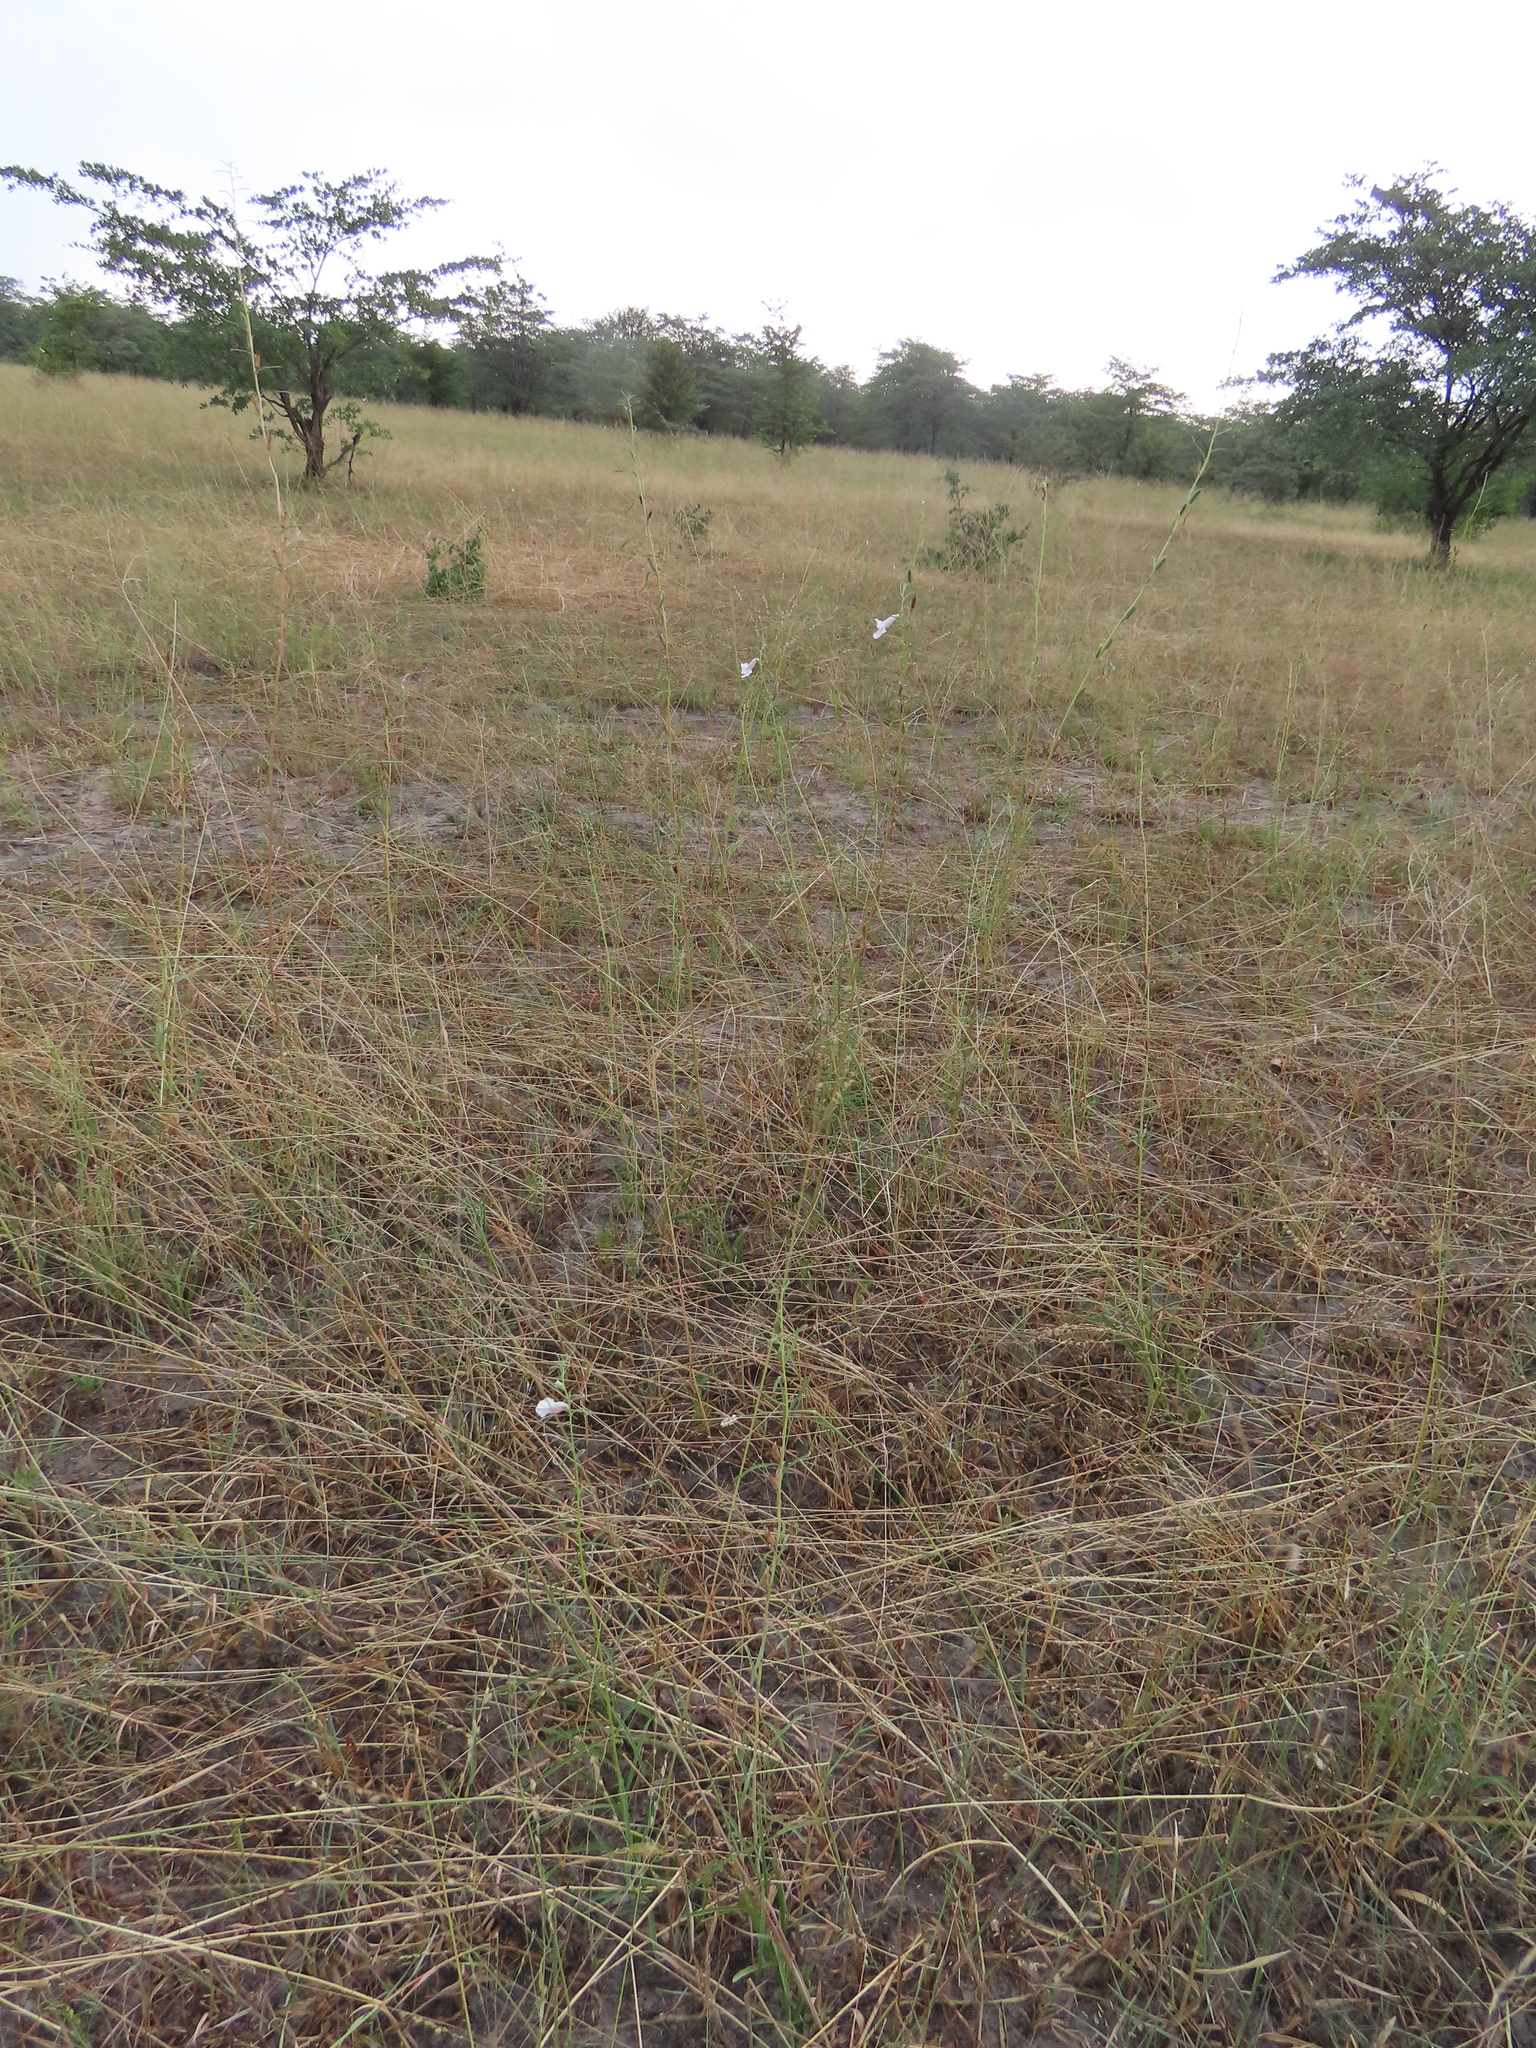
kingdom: Plantae
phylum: Tracheophyta
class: Magnoliopsida
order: Lamiales
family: Pedaliaceae
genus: Sesamum
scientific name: Sesamum calycinum
